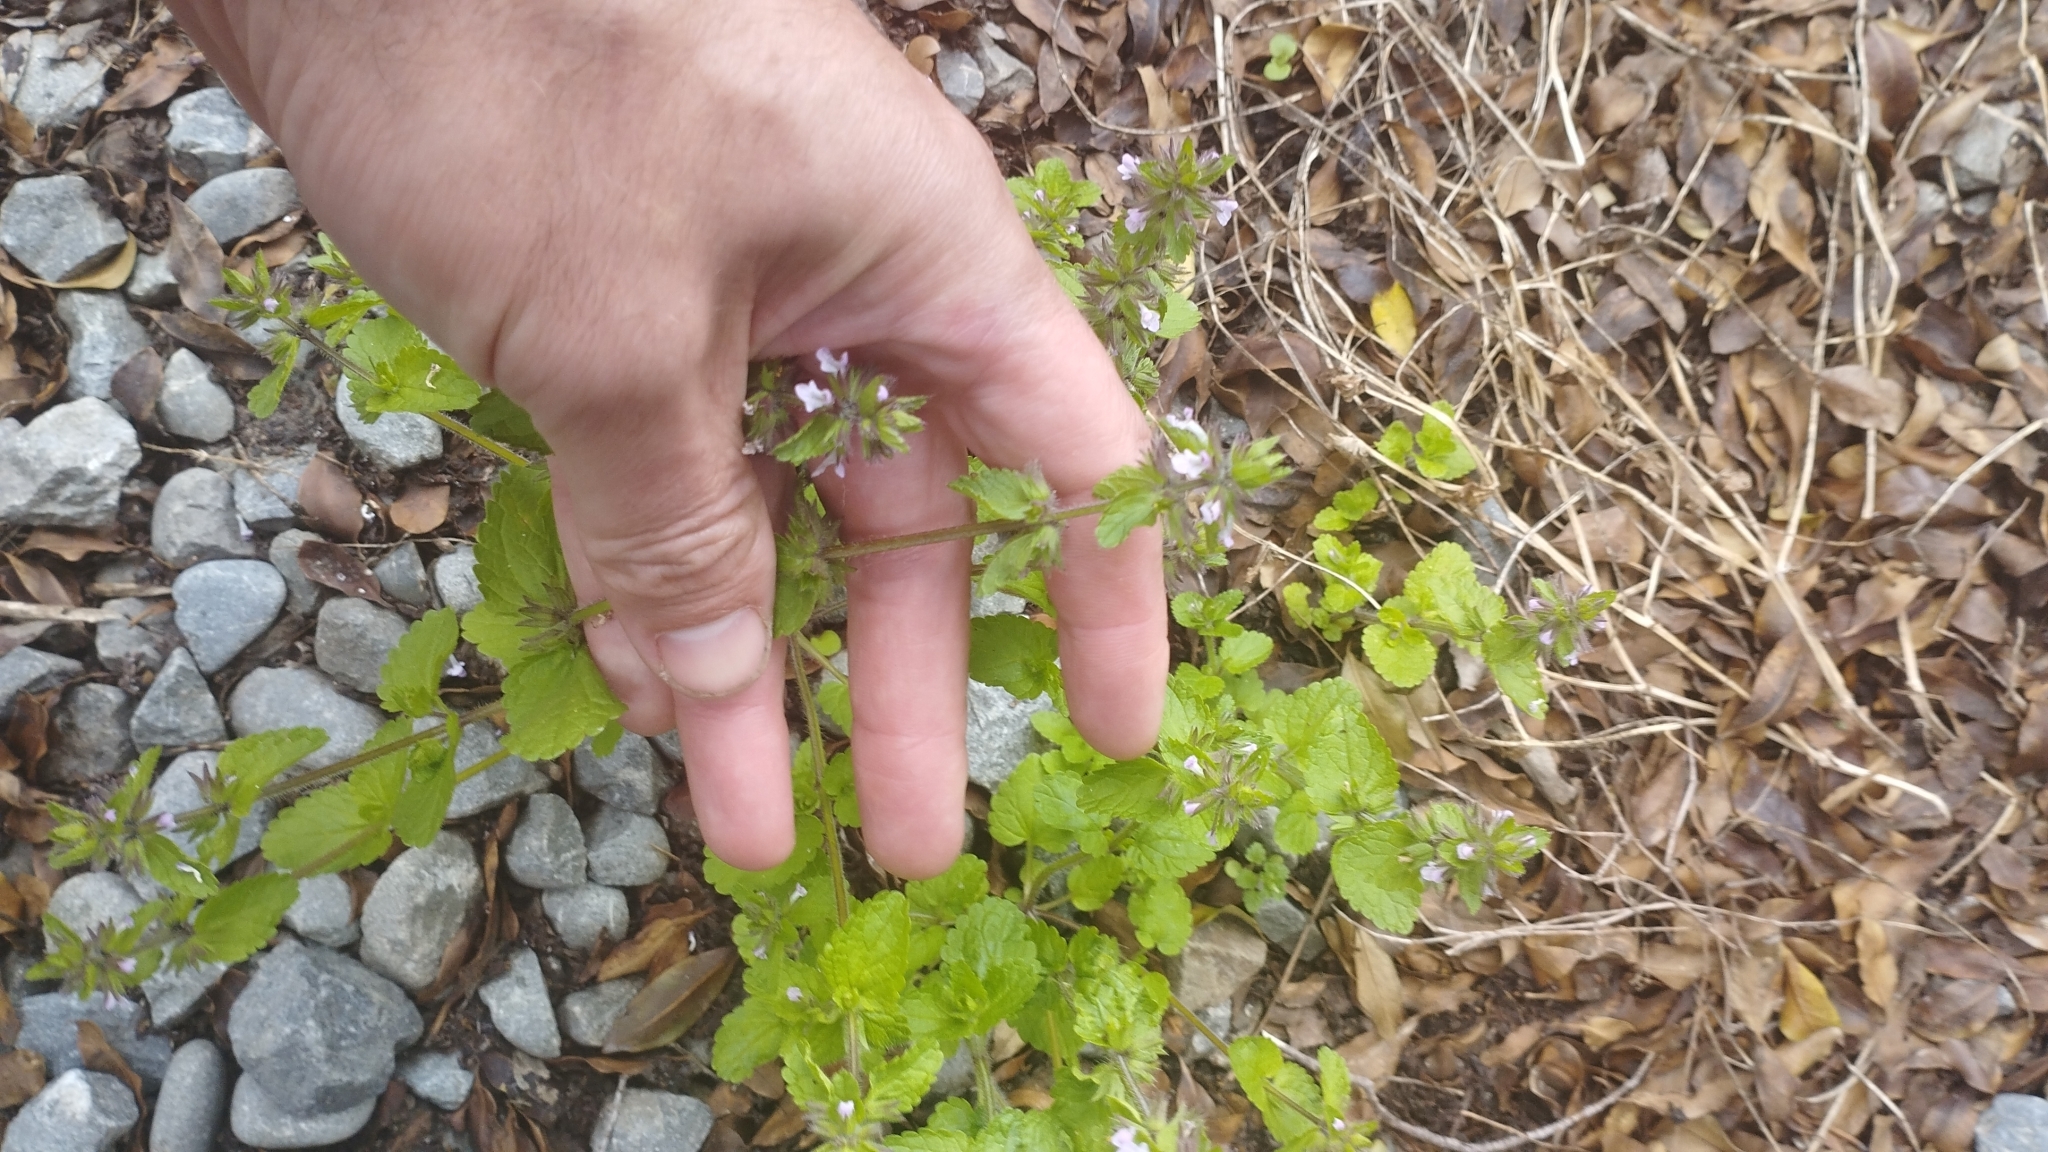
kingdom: Plantae
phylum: Tracheophyta
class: Magnoliopsida
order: Lamiales
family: Lamiaceae
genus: Stachys
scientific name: Stachys arvensis
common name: Field woundwort
